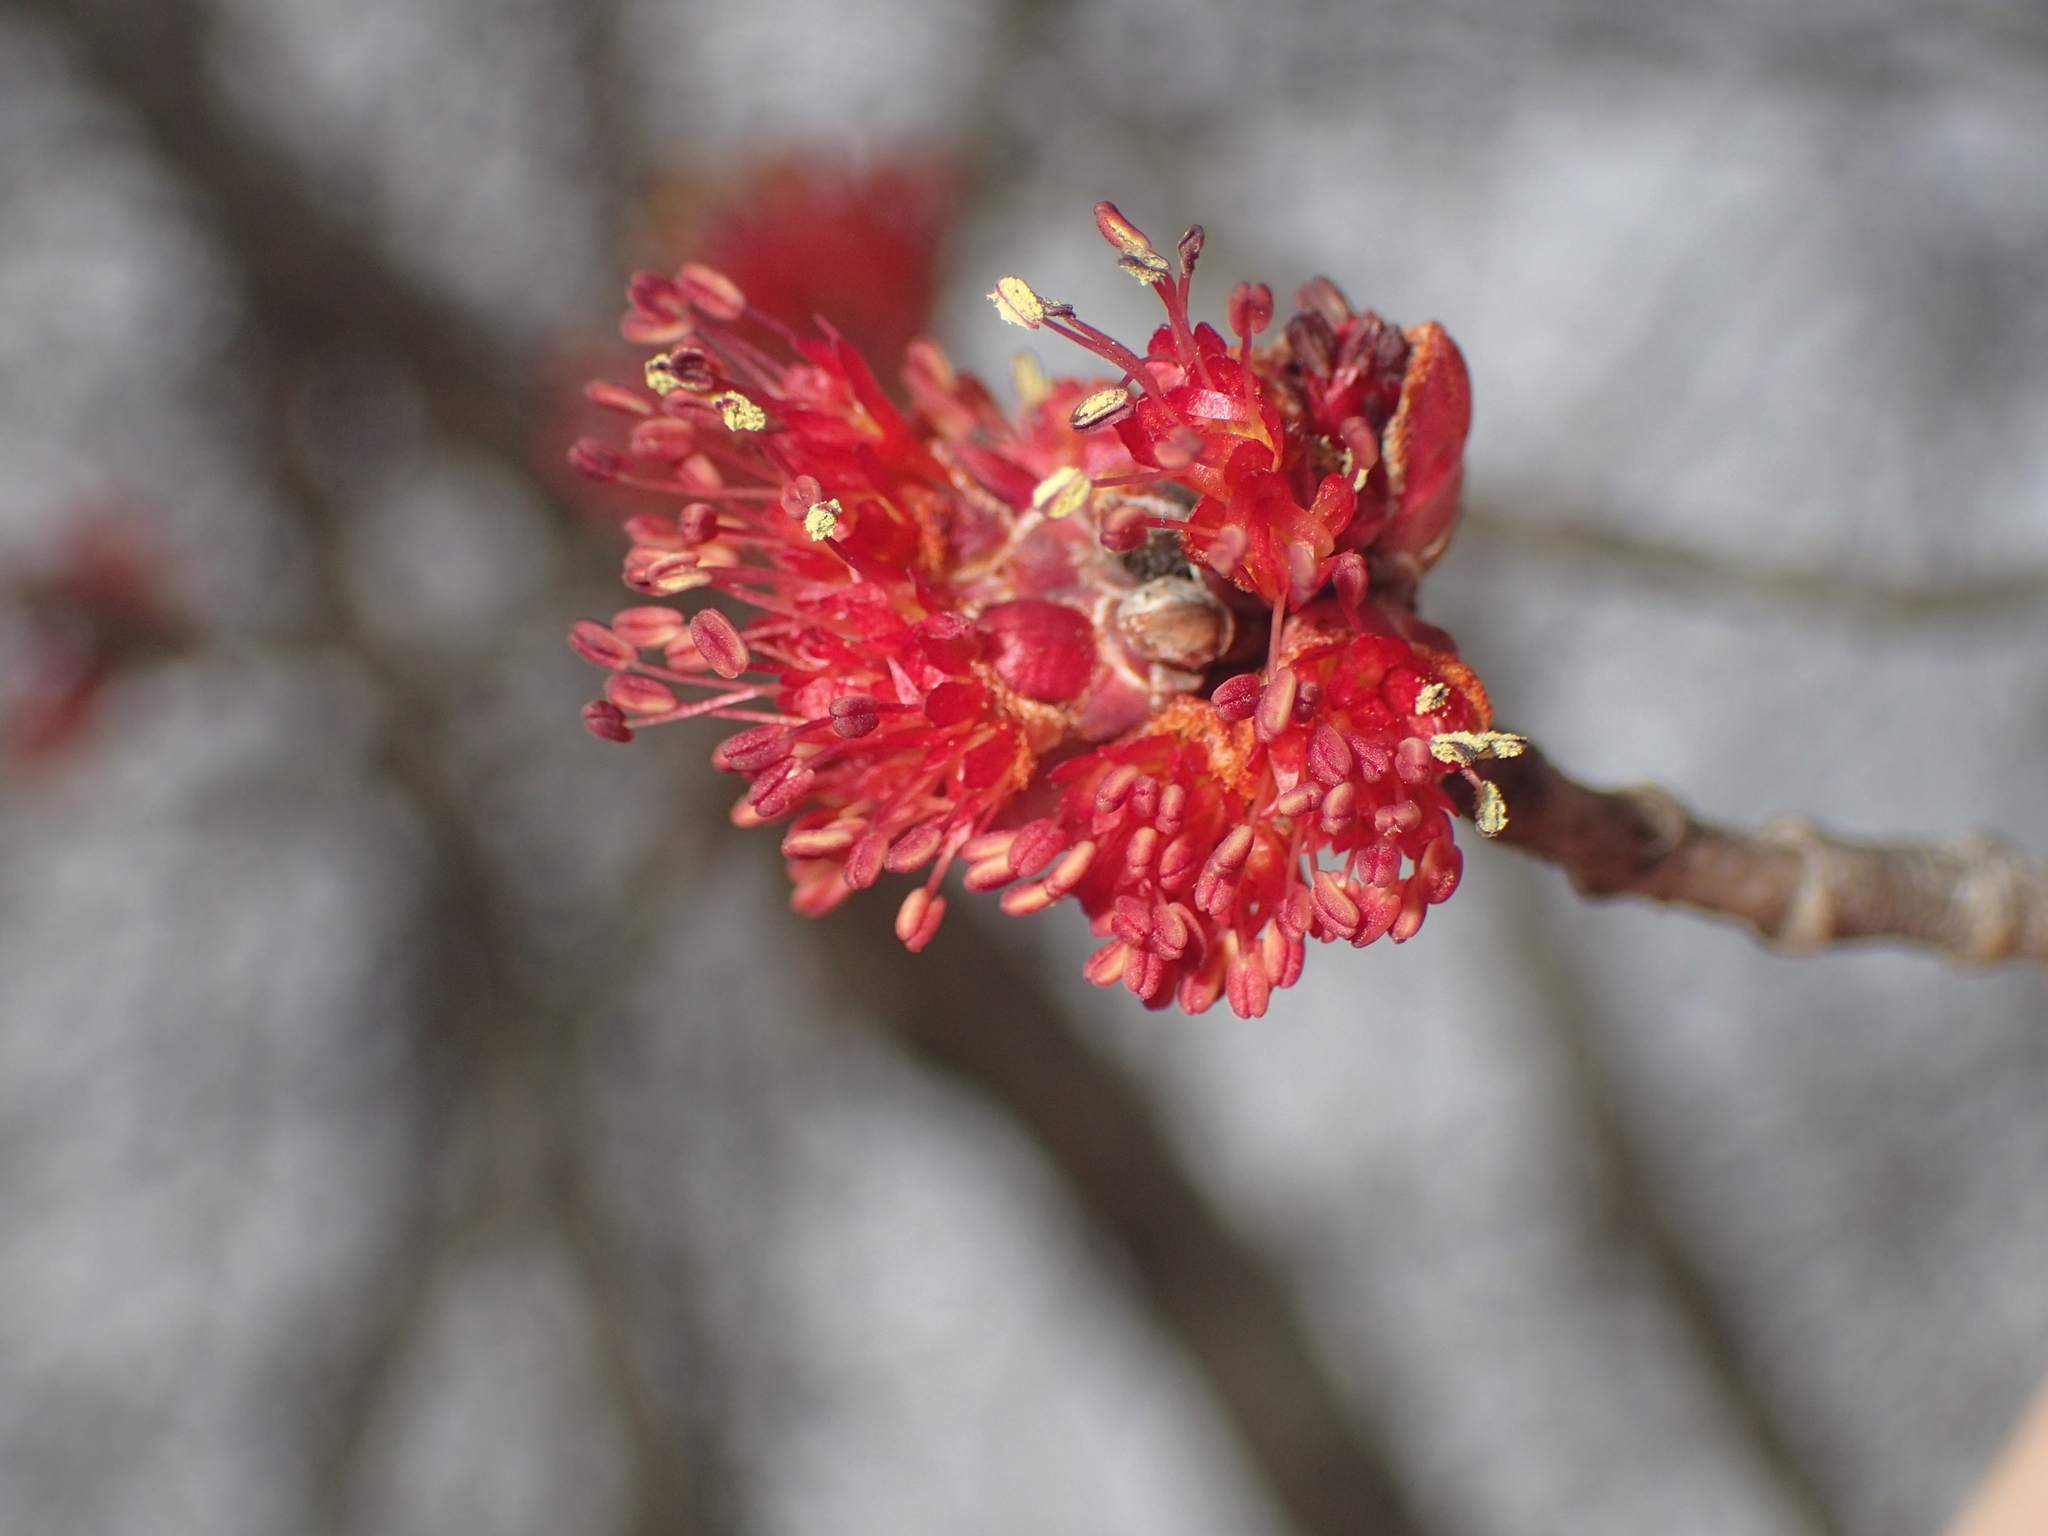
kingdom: Plantae
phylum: Tracheophyta
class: Magnoliopsida
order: Sapindales
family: Sapindaceae
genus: Acer
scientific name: Acer rubrum
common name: Red maple
